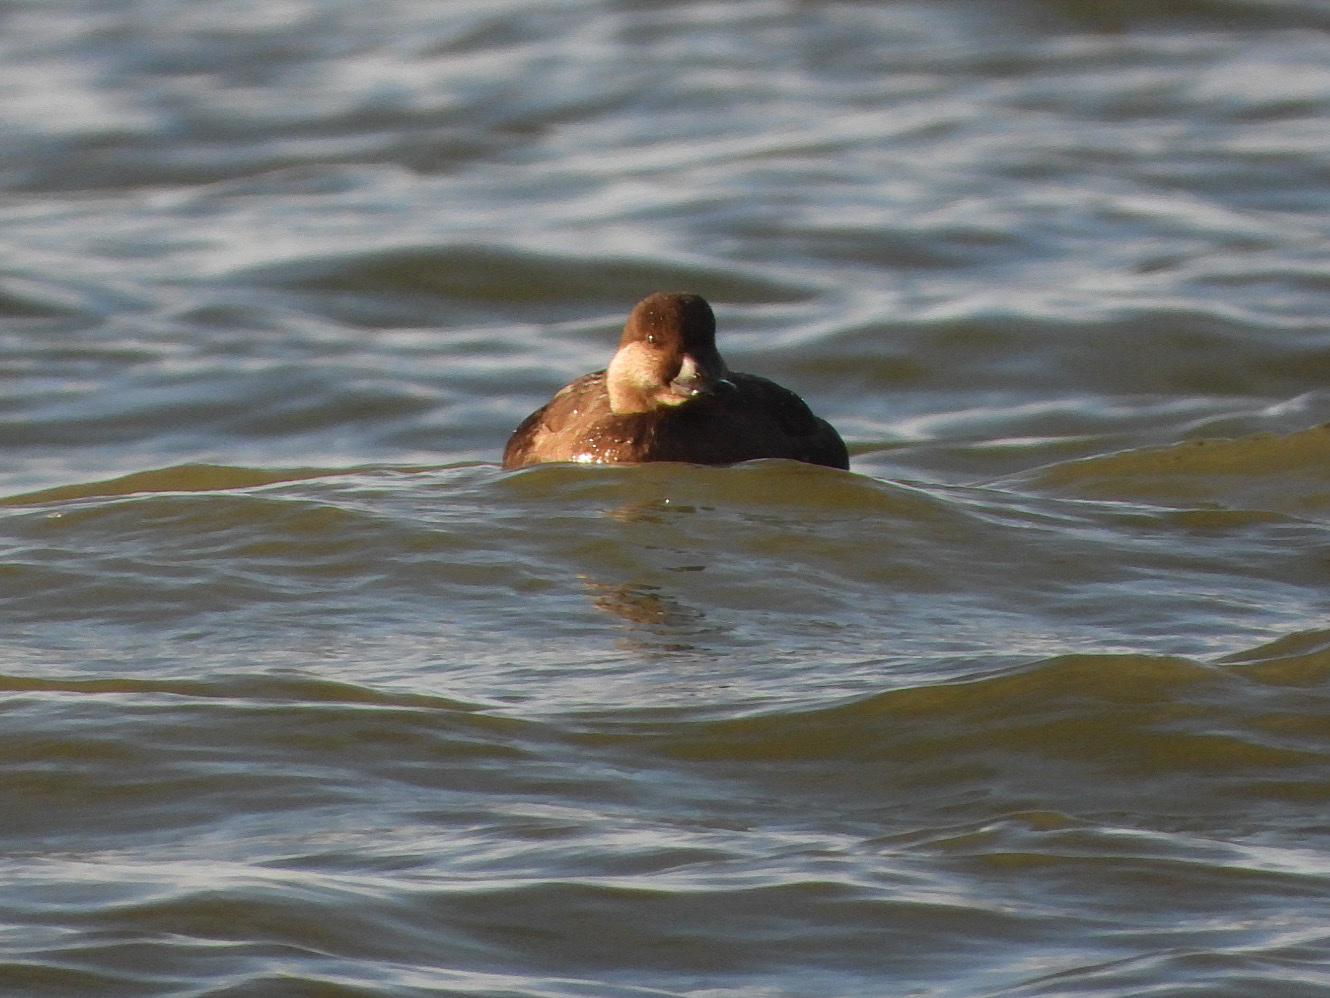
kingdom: Animalia
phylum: Chordata
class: Aves
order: Anseriformes
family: Anatidae
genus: Melanitta
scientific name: Melanitta americana
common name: Black scoter
